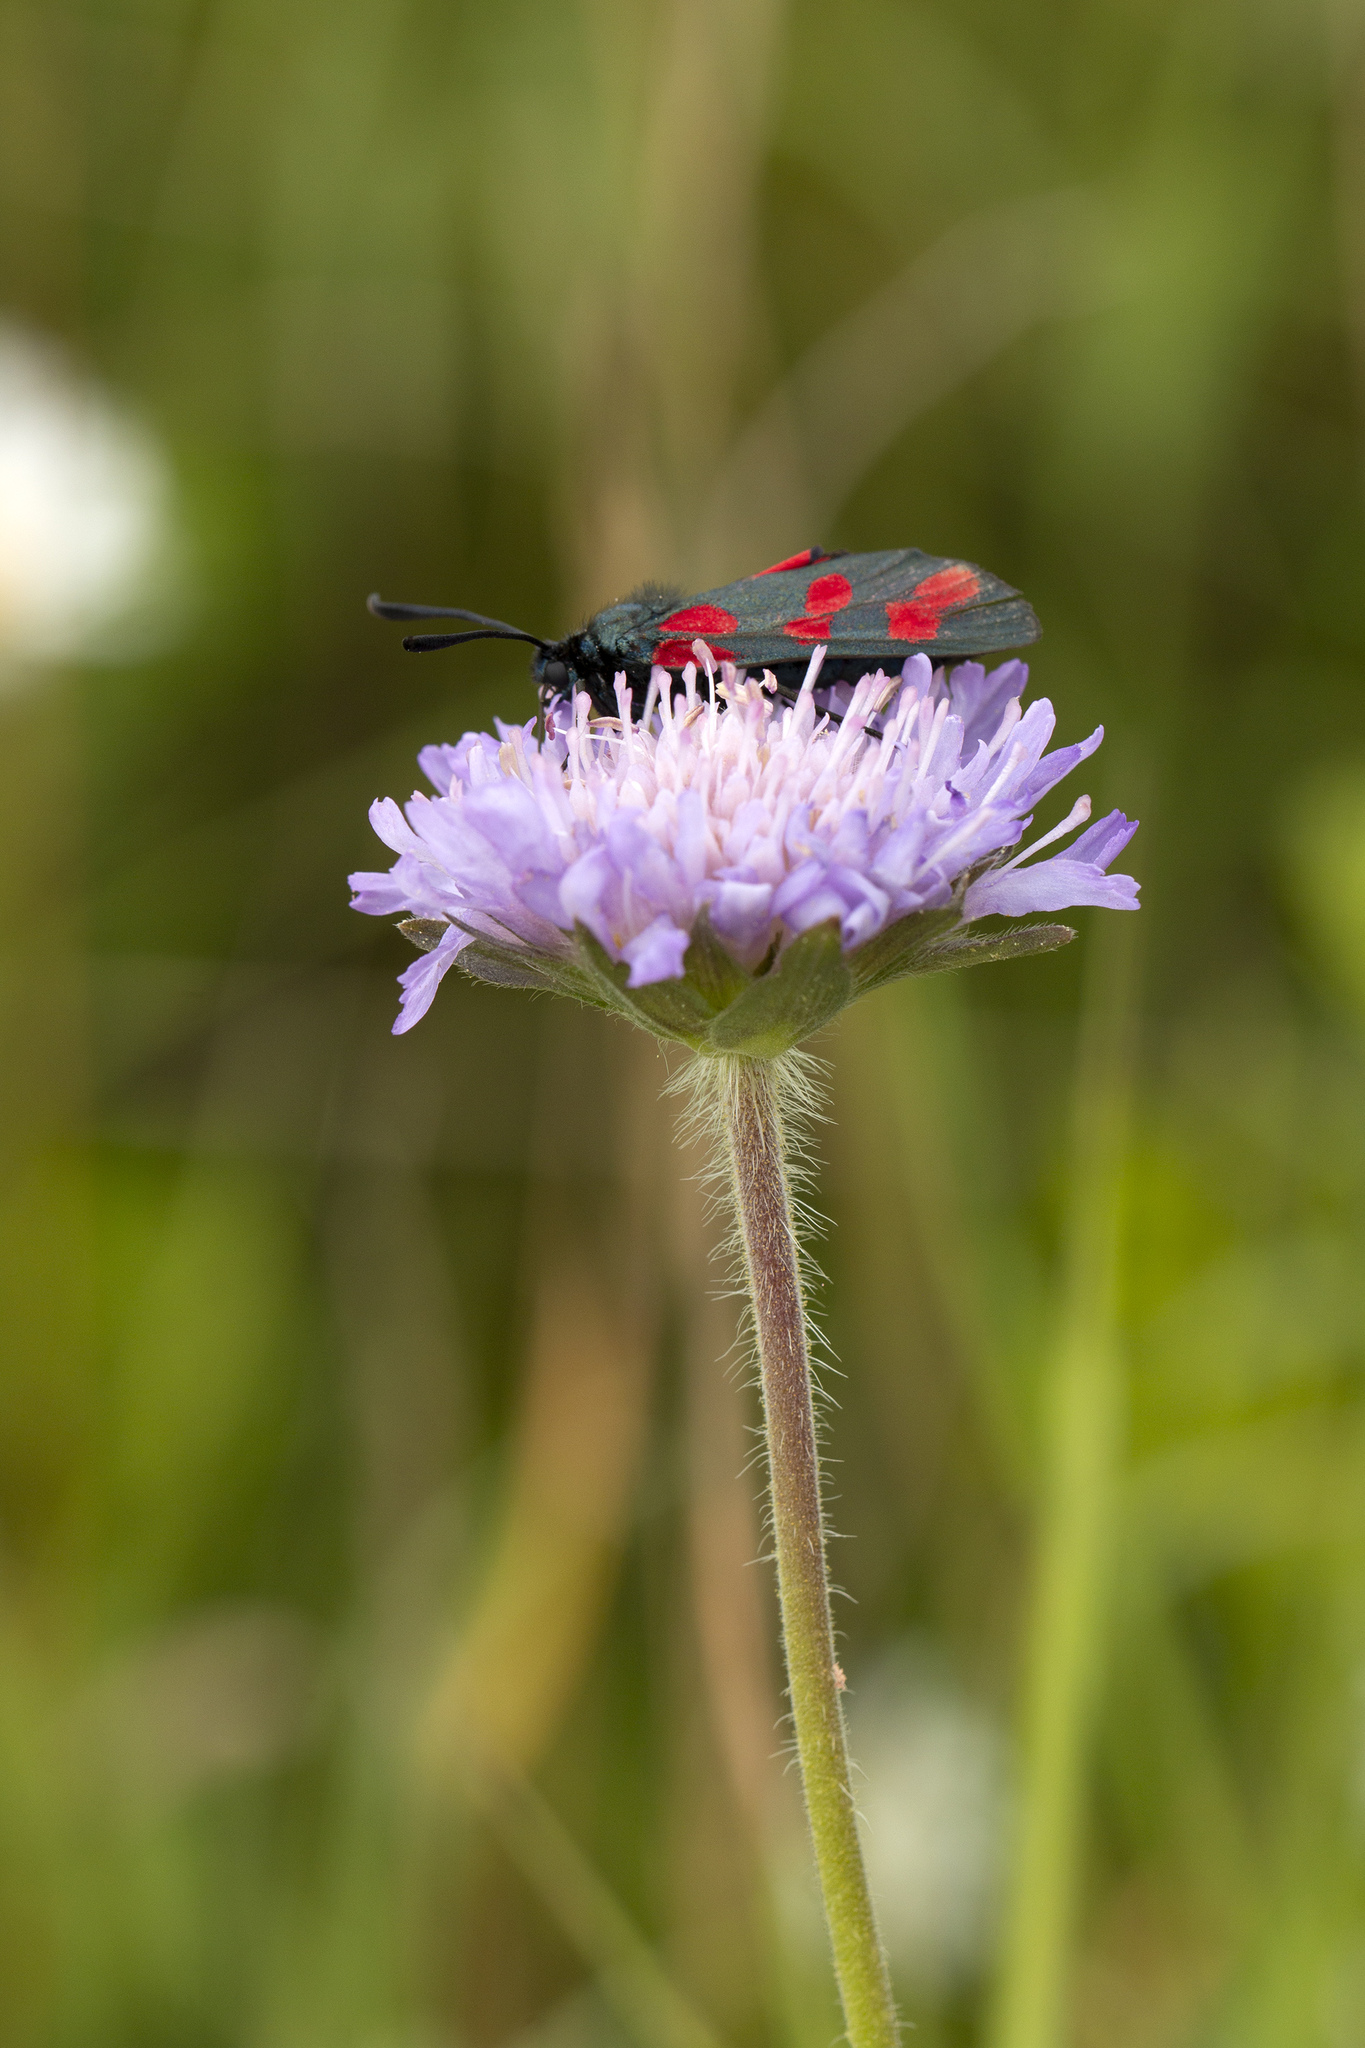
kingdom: Animalia
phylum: Arthropoda
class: Insecta
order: Lepidoptera
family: Zygaenidae
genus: Zygaena
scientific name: Zygaena filipendulae
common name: Six-spot burnet
